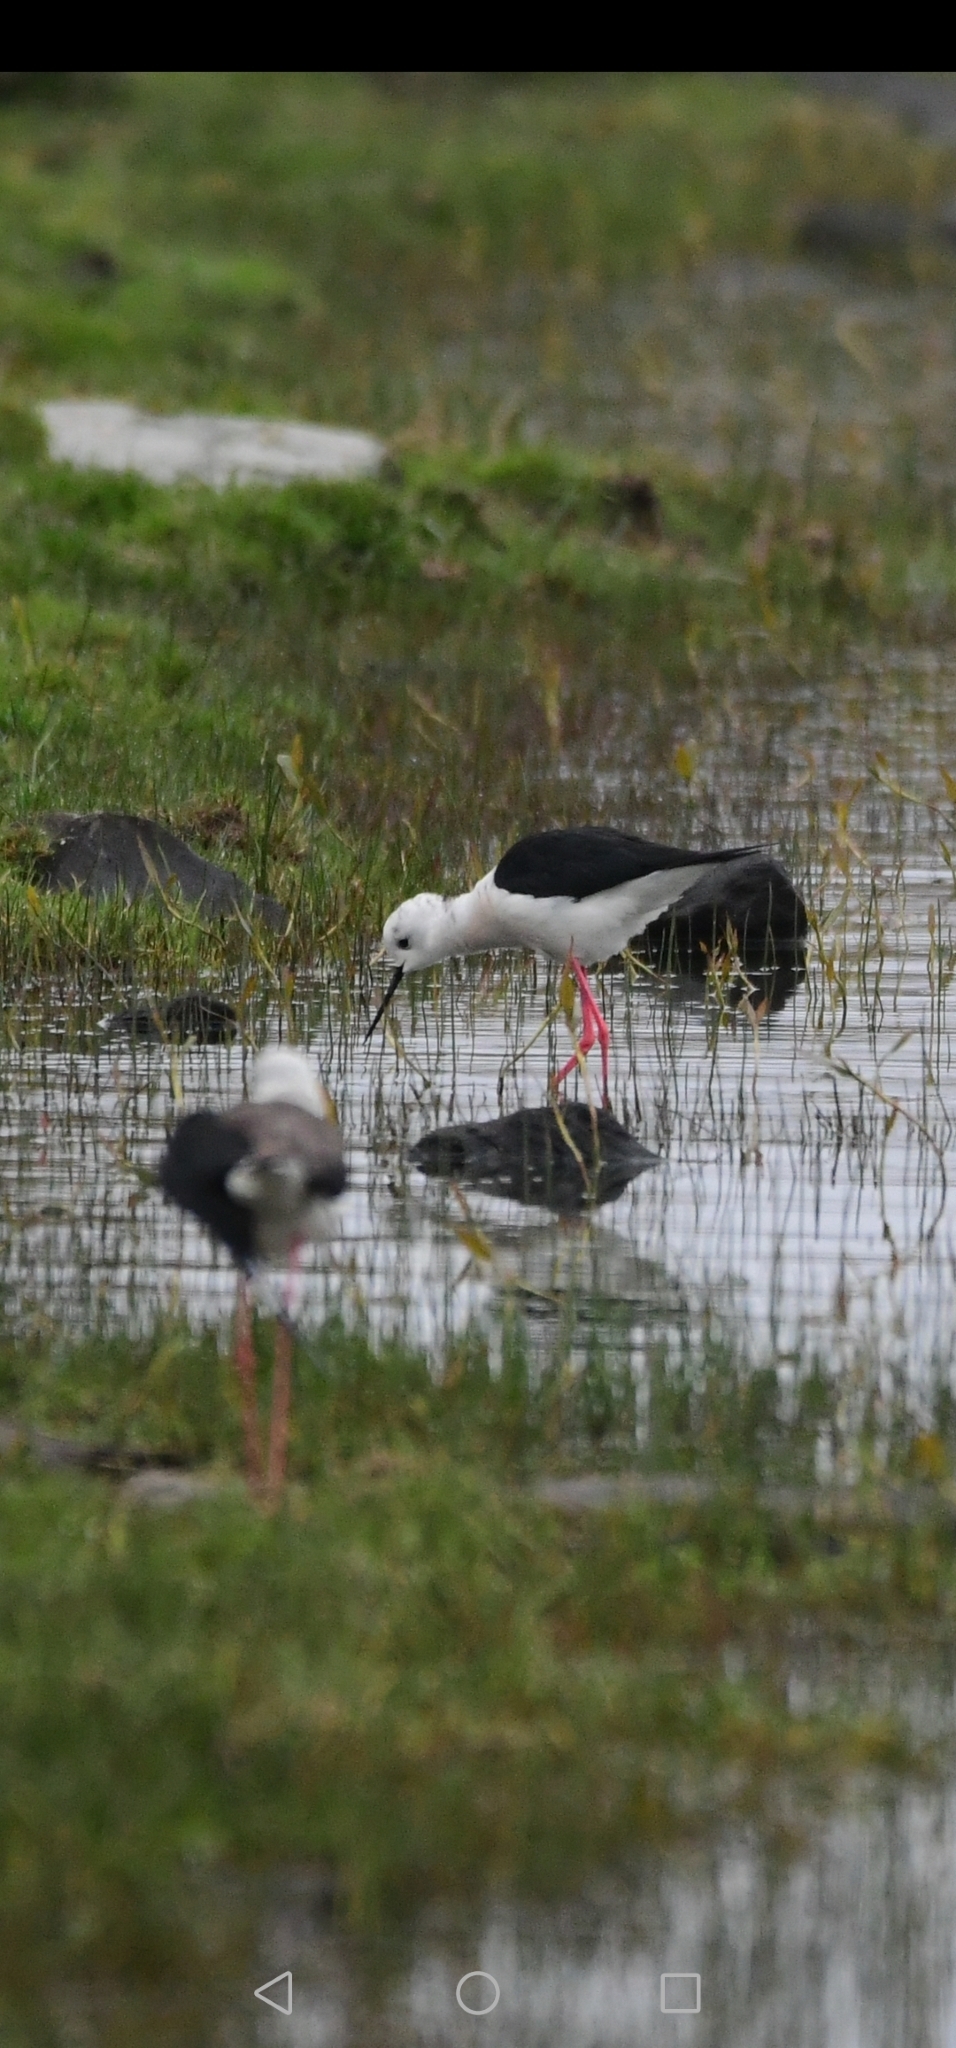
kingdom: Animalia
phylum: Chordata
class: Aves
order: Charadriiformes
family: Recurvirostridae
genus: Himantopus
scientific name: Himantopus himantopus
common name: Black-winged stilt
